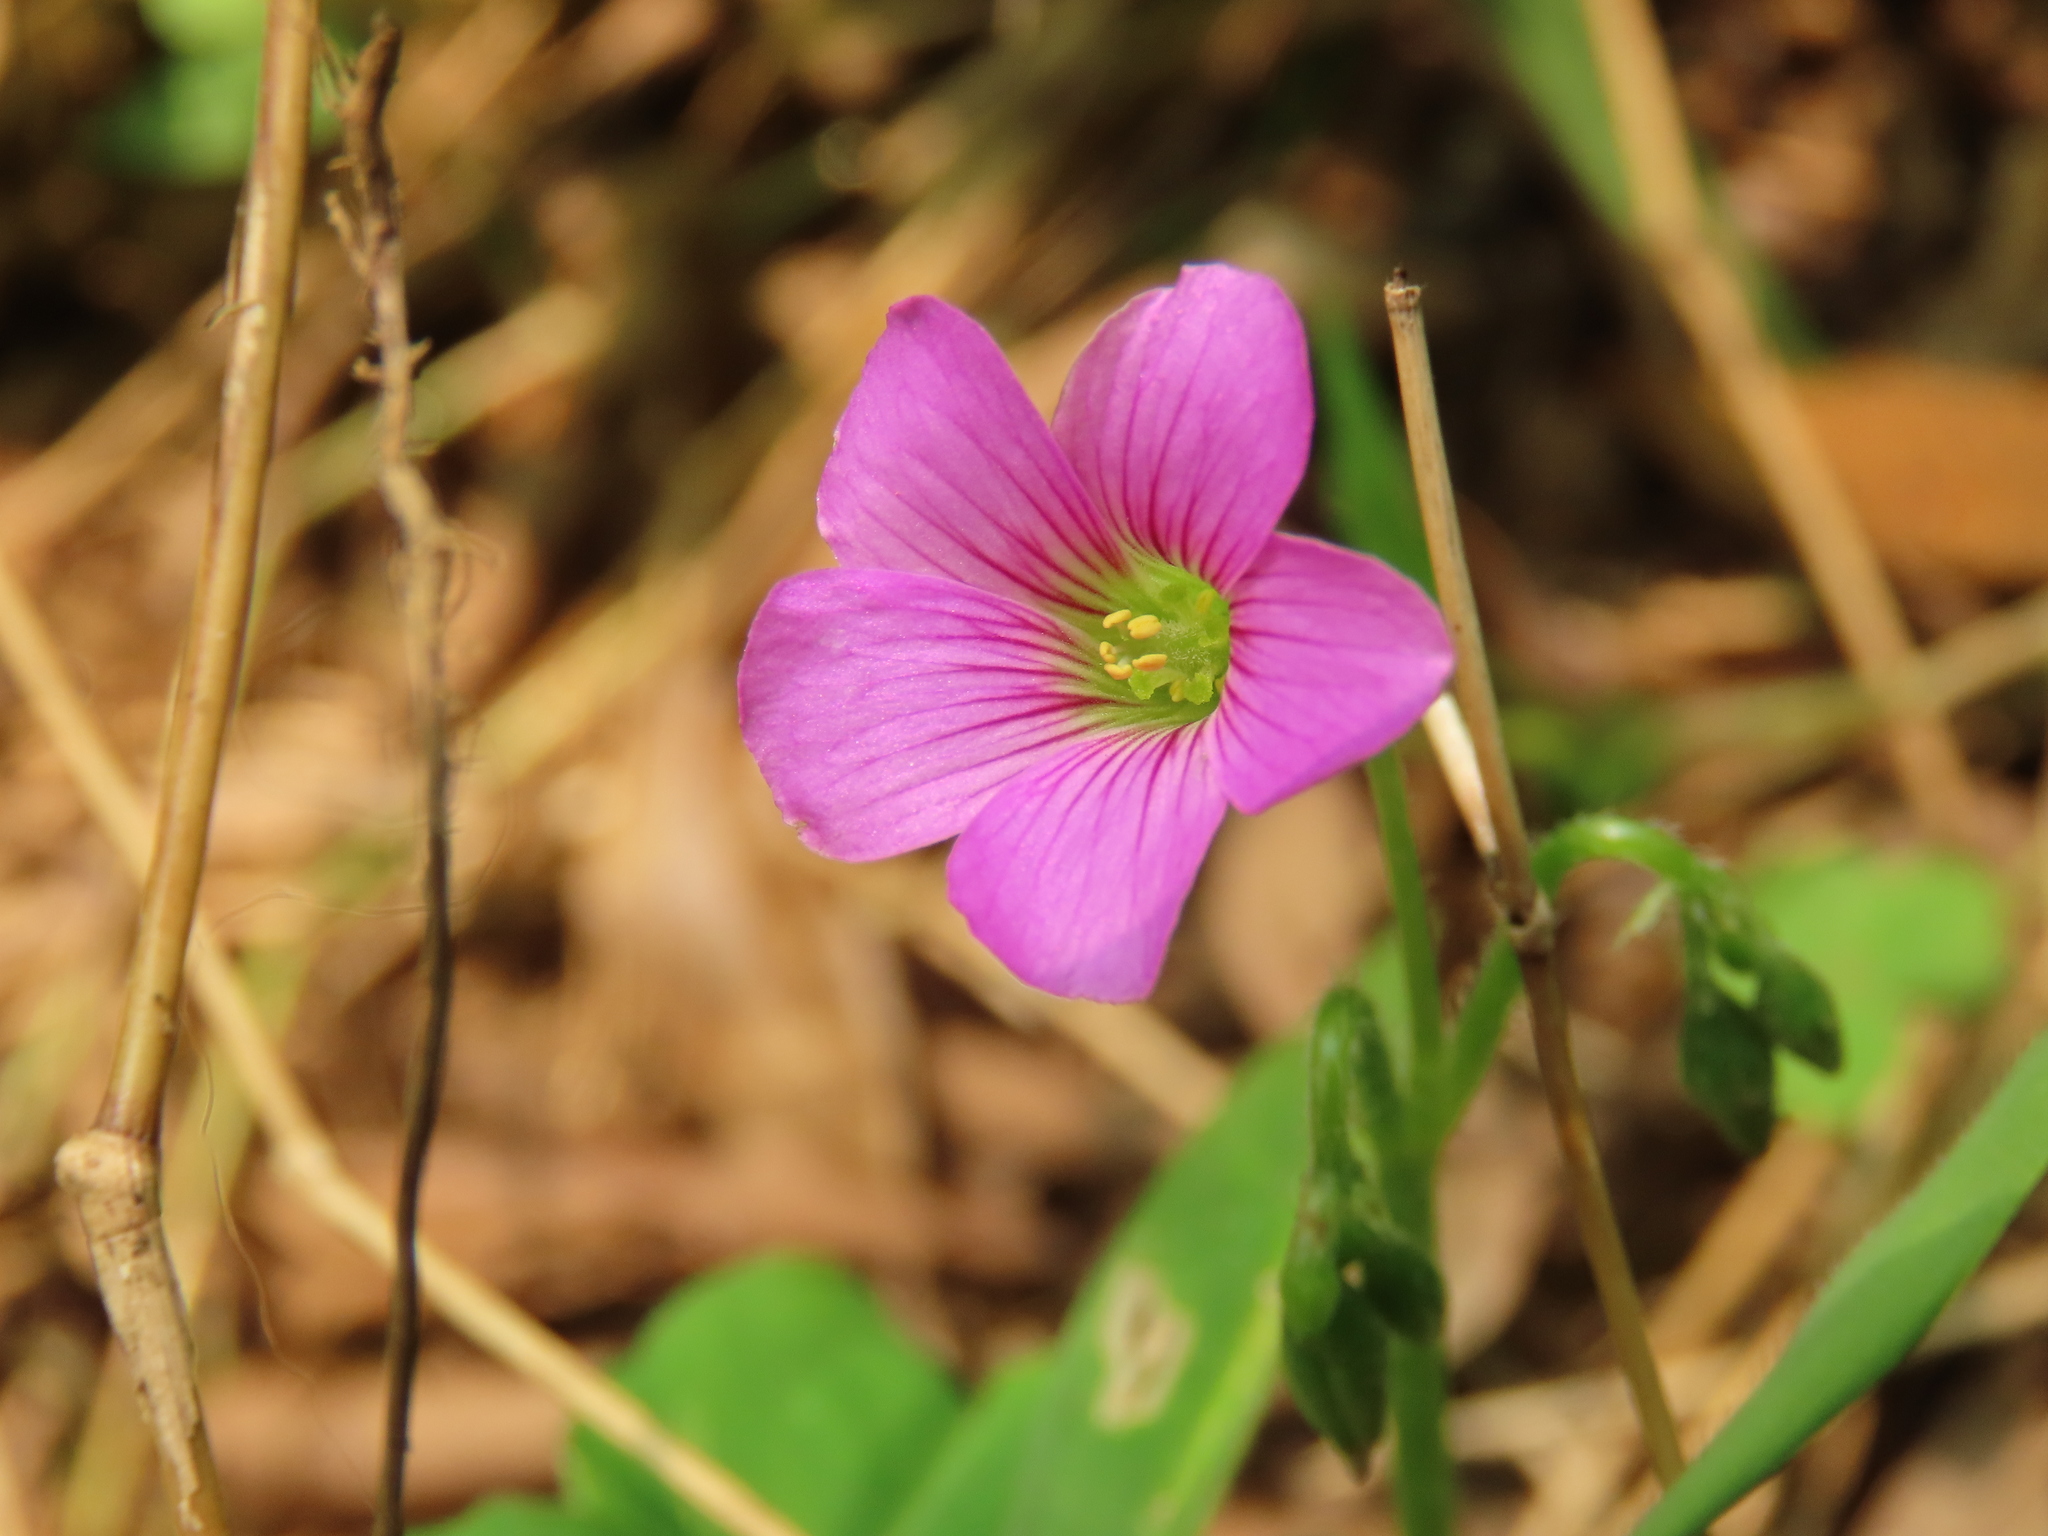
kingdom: Plantae
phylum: Tracheophyta
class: Magnoliopsida
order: Oxalidales
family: Oxalidaceae
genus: Oxalis
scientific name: Oxalis debilis
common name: Large-flowered pink-sorrel
